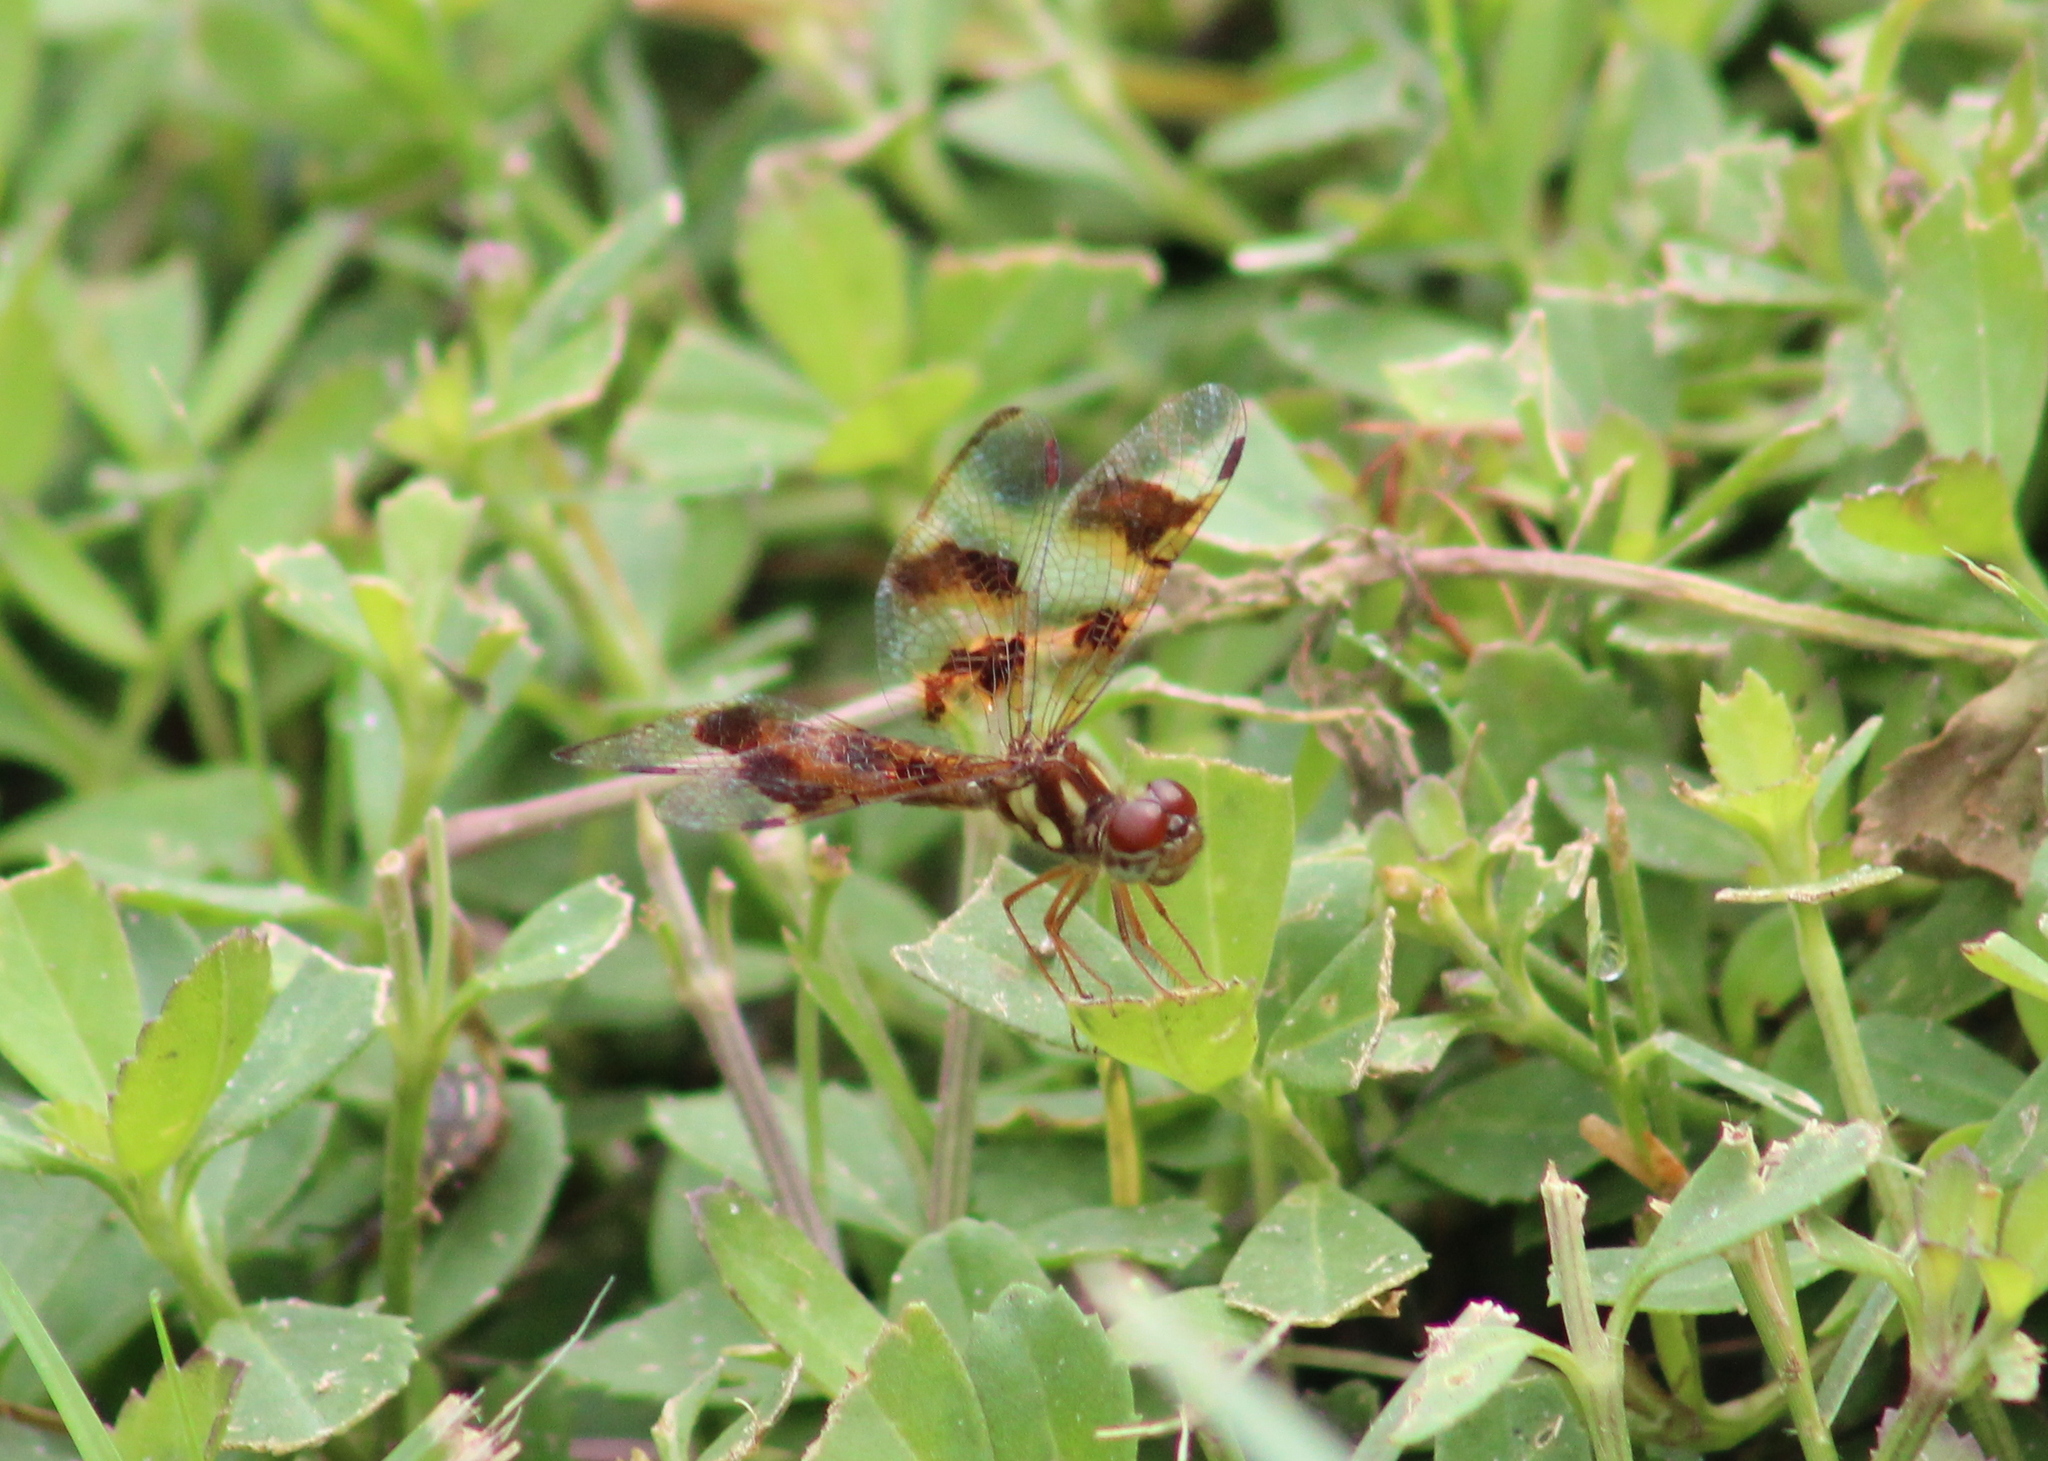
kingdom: Animalia
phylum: Arthropoda
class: Insecta
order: Odonata
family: Libellulidae
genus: Perithemis
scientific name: Perithemis tenera
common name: Eastern amberwing
